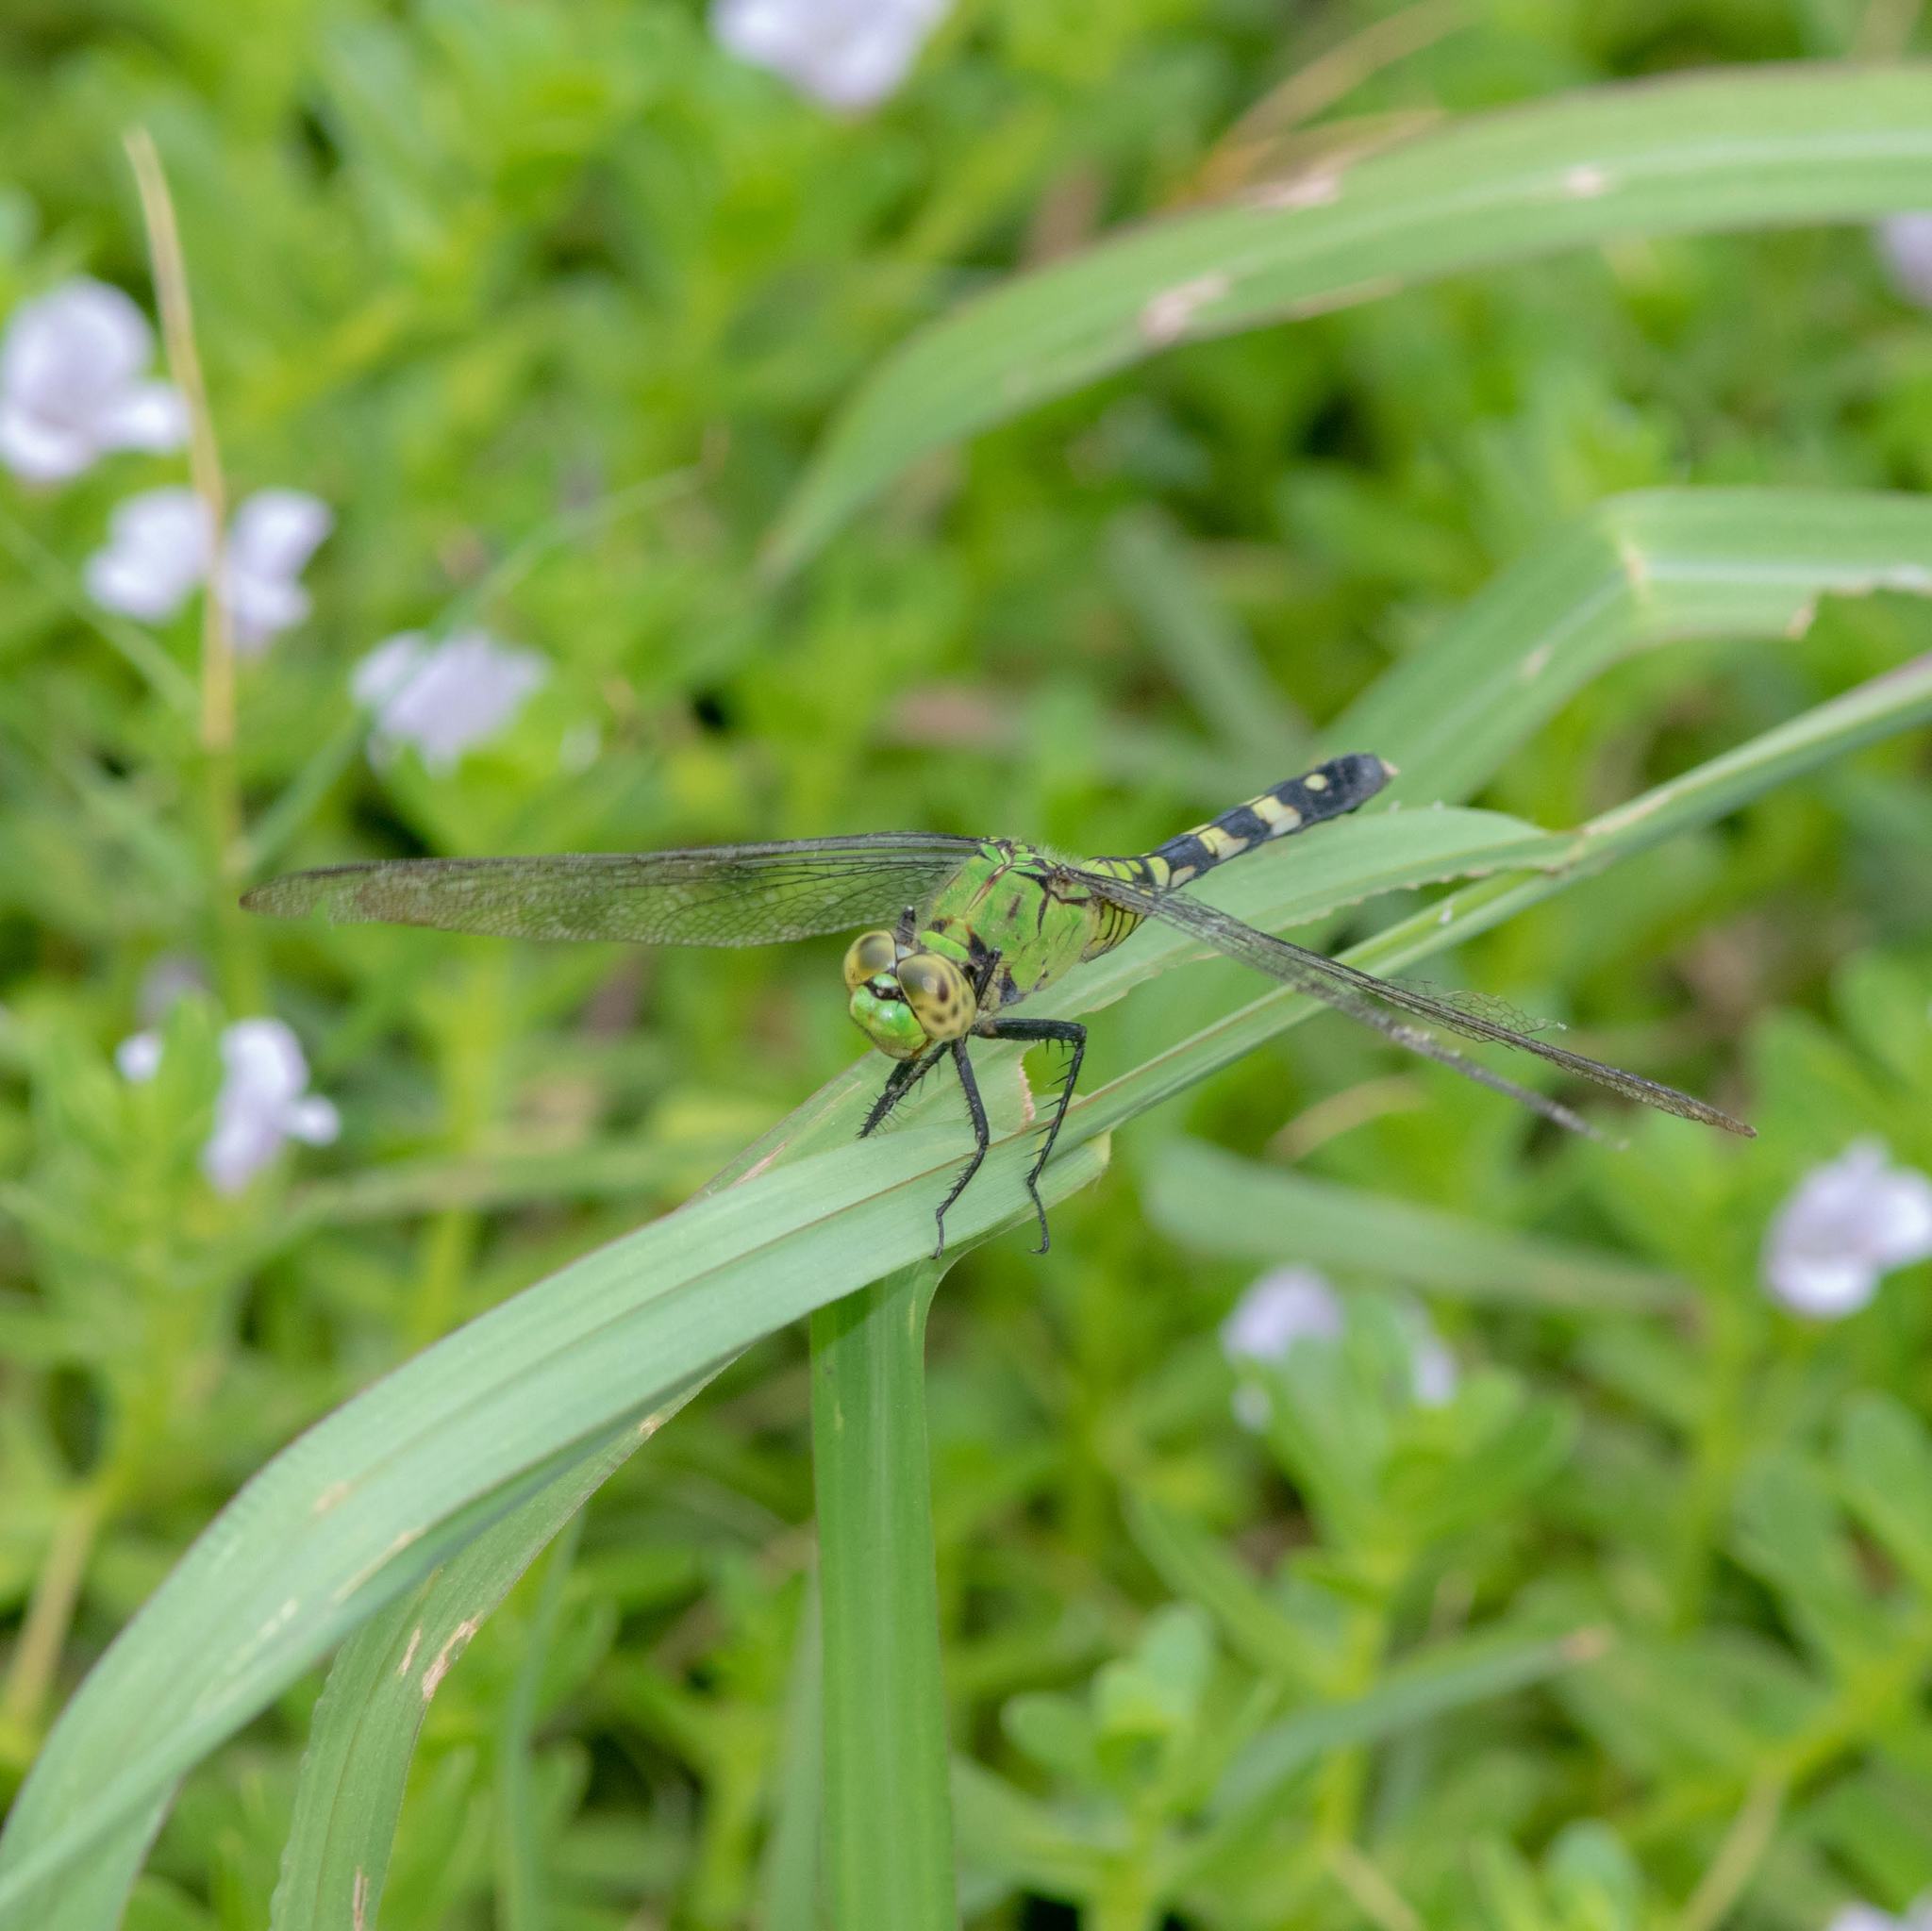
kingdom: Animalia
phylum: Arthropoda
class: Insecta
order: Odonata
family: Libellulidae
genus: Erythemis
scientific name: Erythemis simplicicollis
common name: Eastern pondhawk
